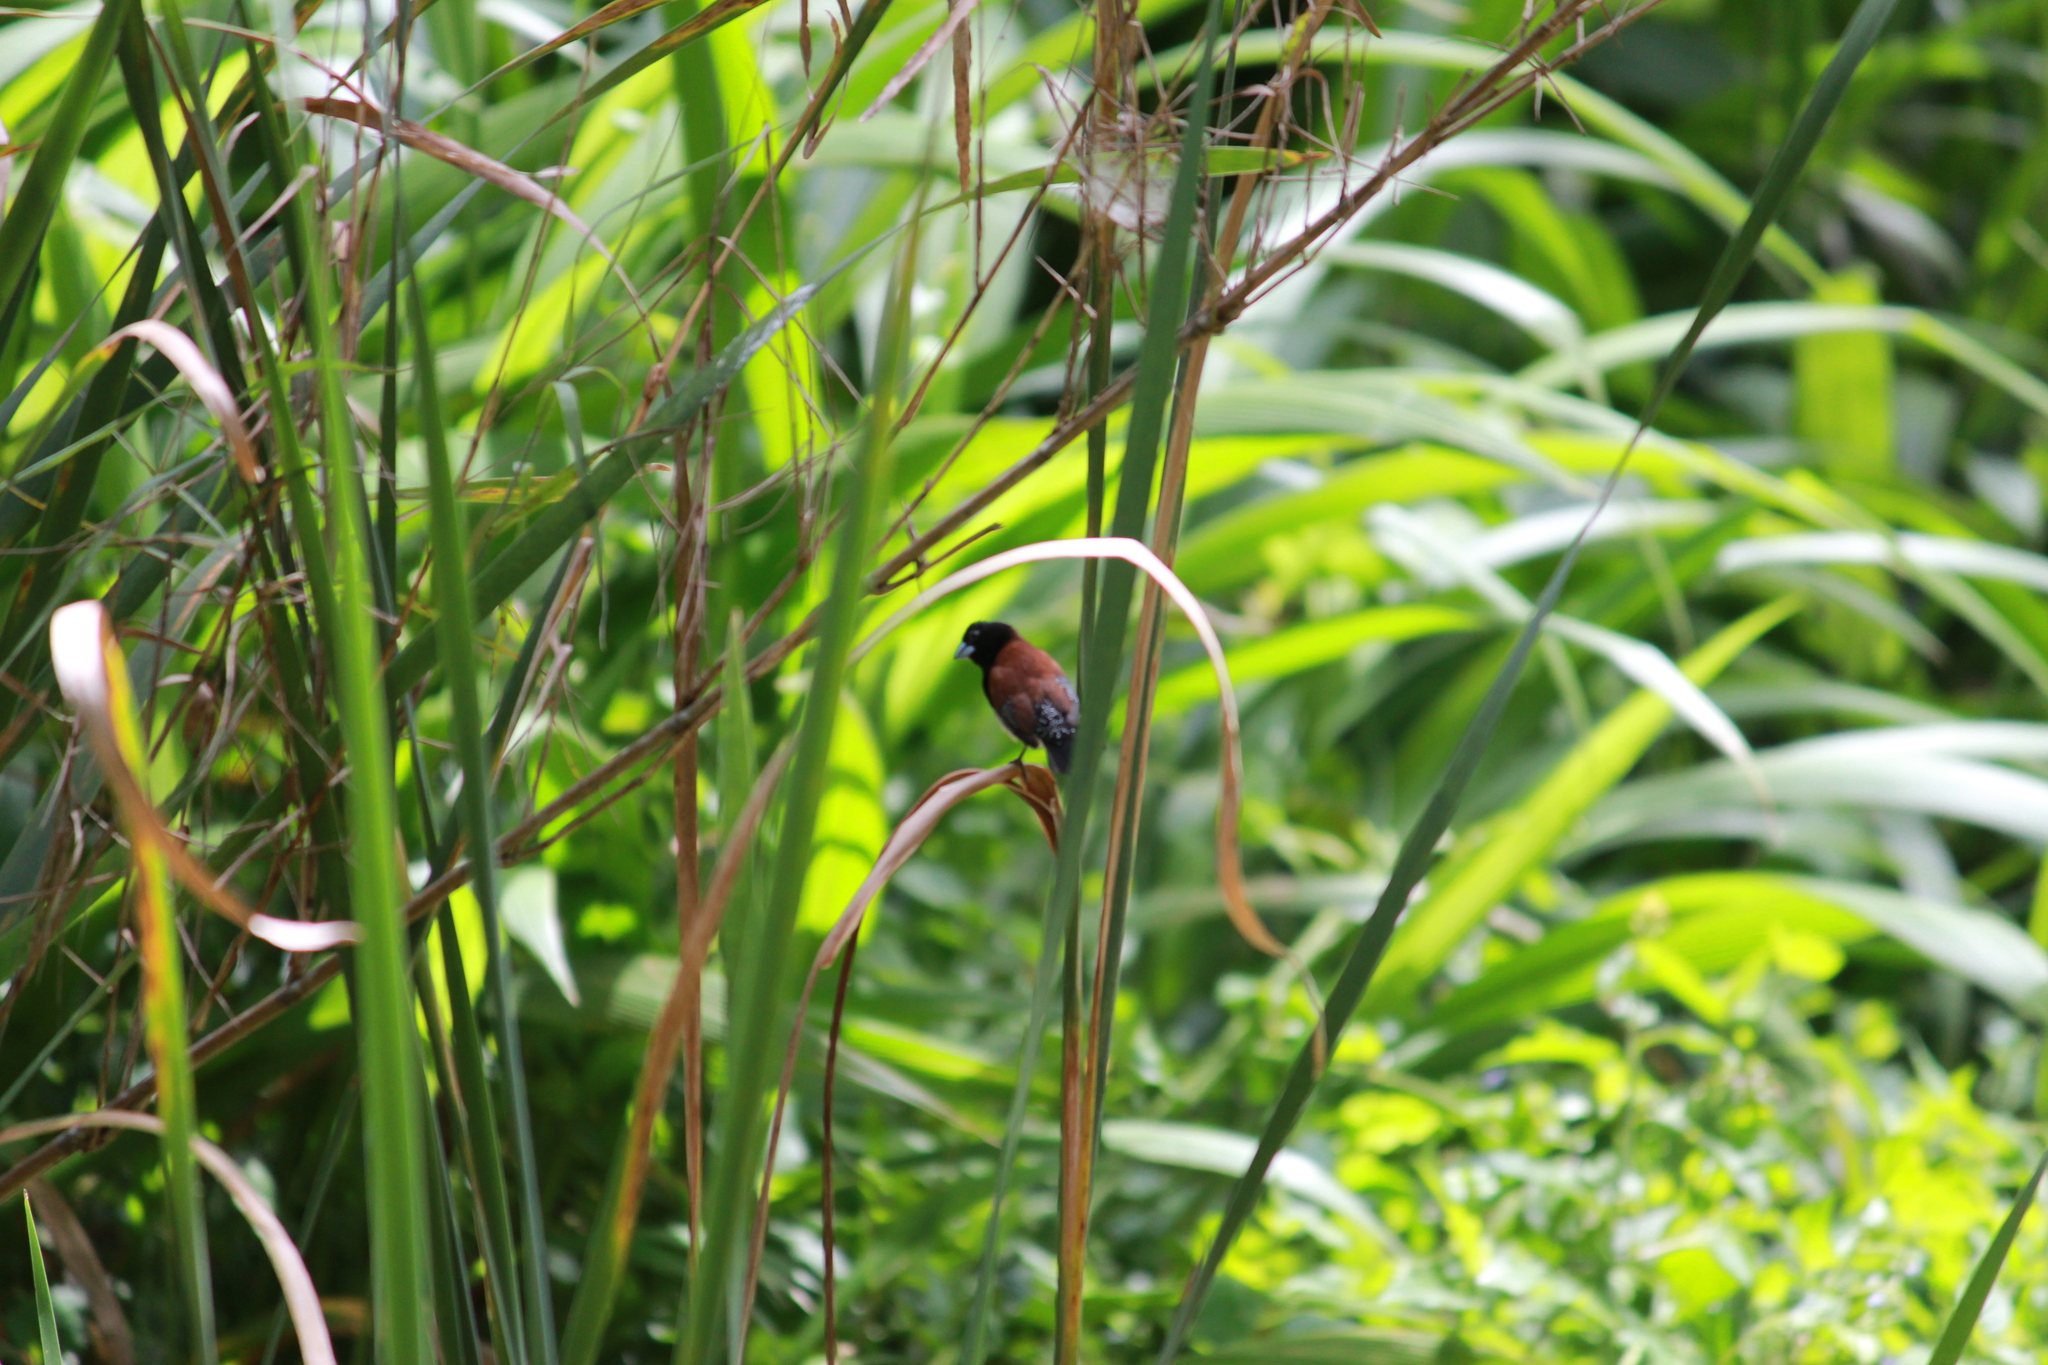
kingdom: Animalia
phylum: Chordata
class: Aves
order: Passeriformes
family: Estrildidae
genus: Lonchura
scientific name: Lonchura nigriceps
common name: Red-backed mannikin
